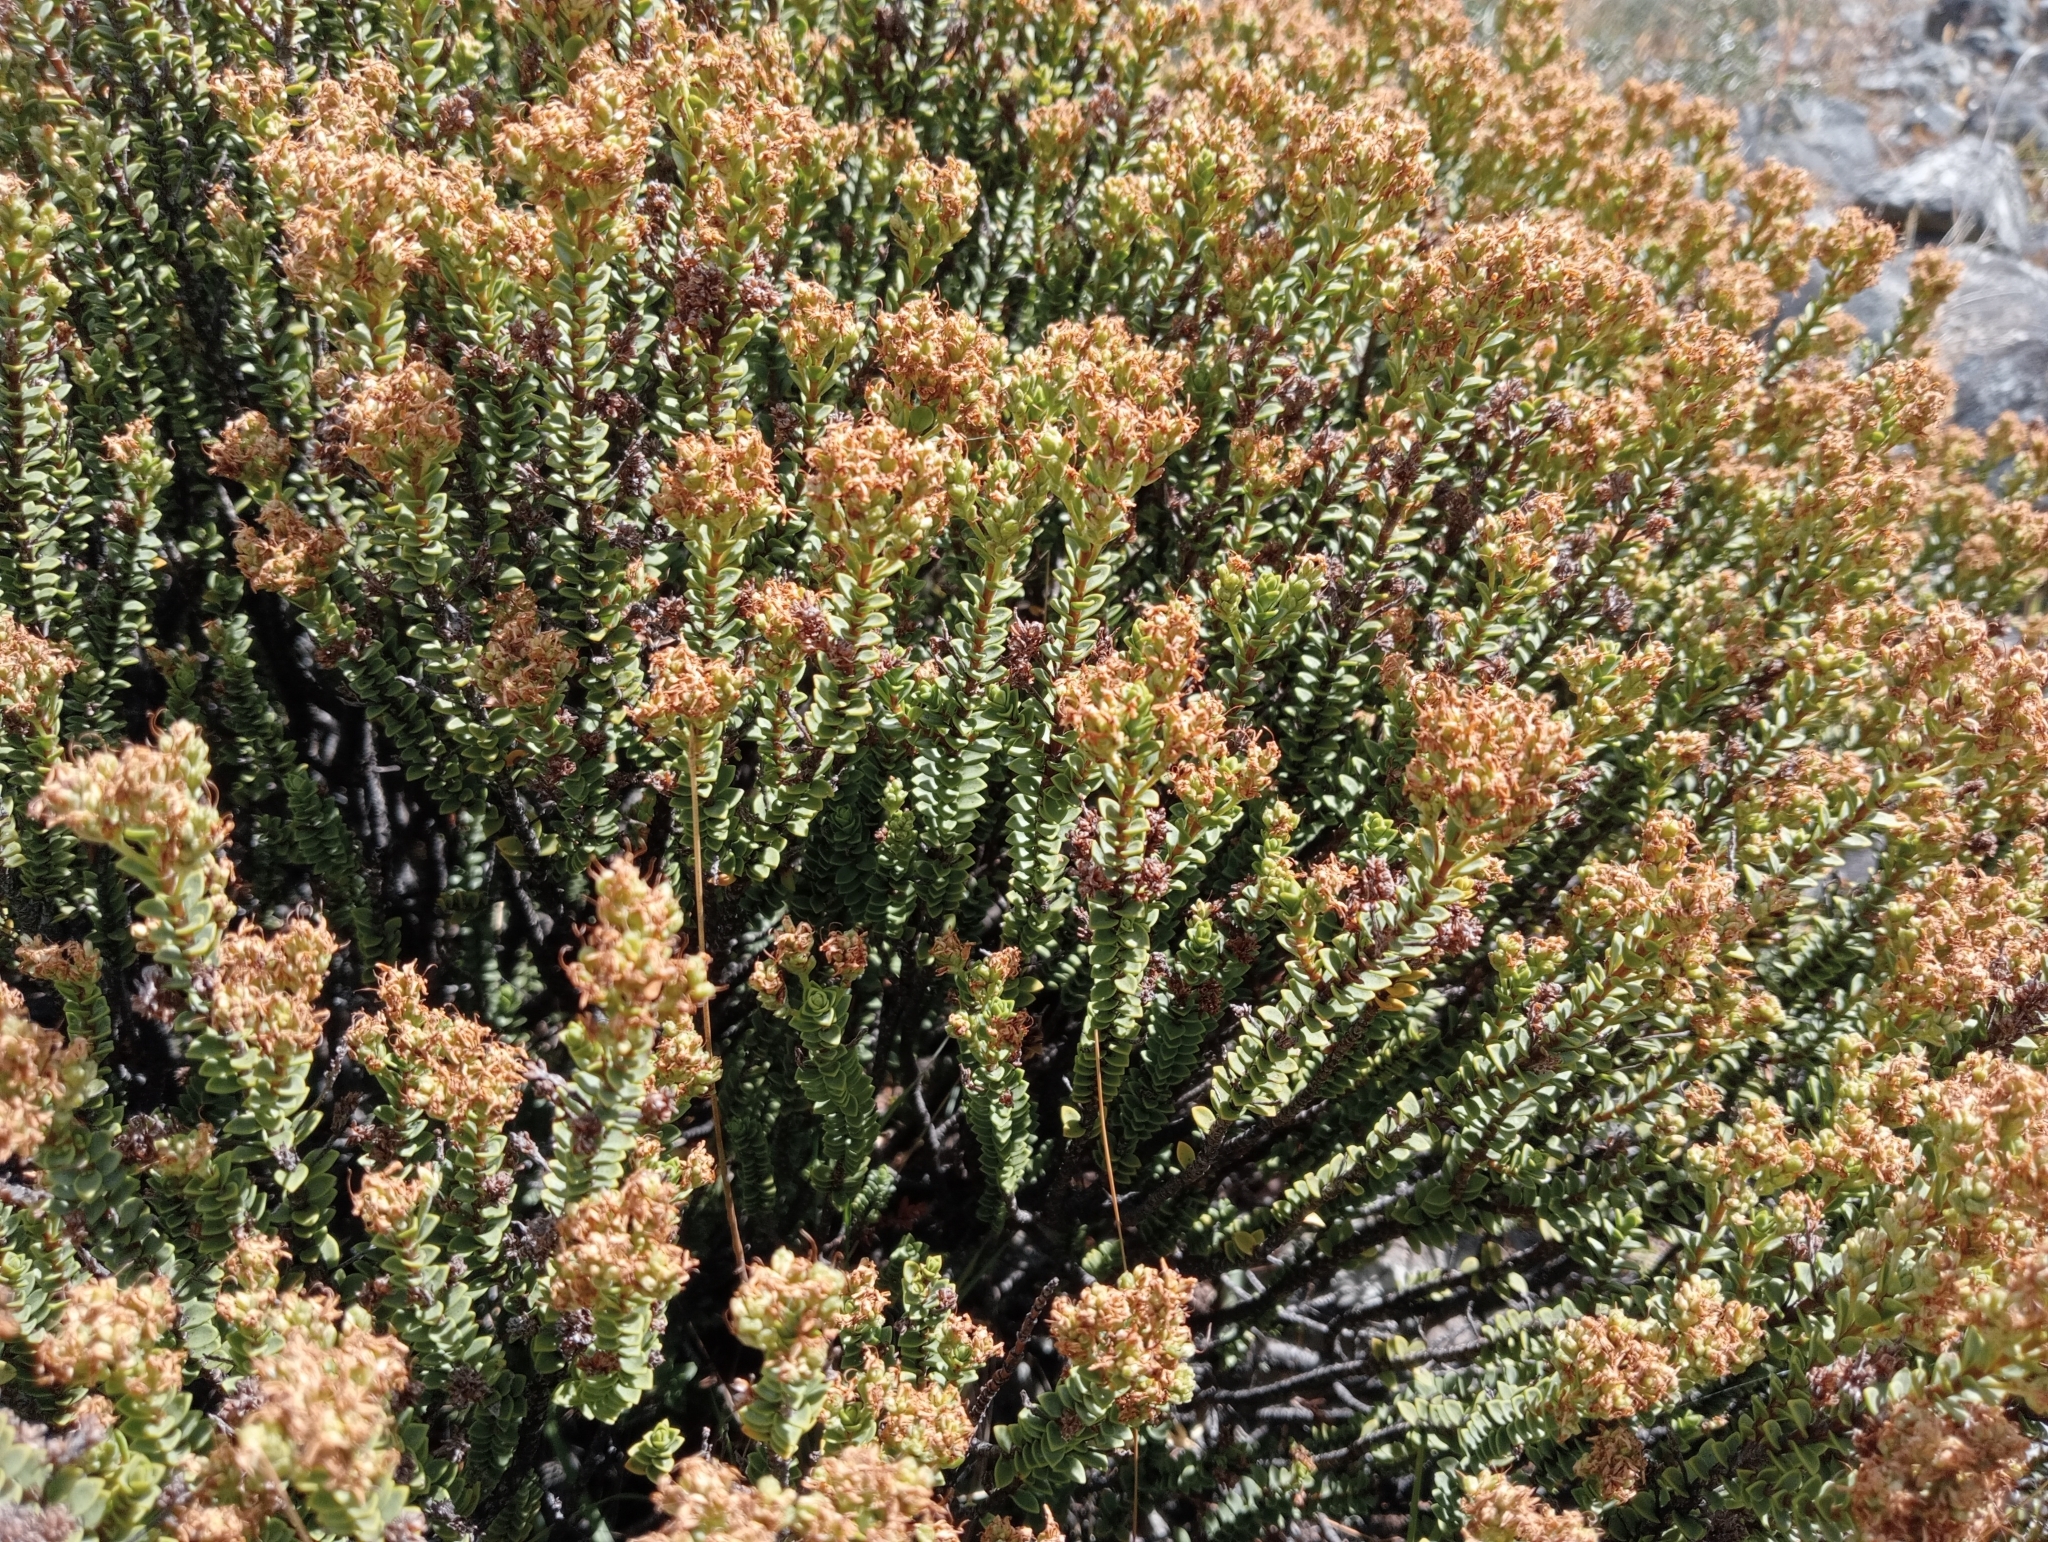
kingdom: Plantae
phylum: Tracheophyta
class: Magnoliopsida
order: Lamiales
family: Plantaginaceae
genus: Veronica
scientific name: Veronica buchananii
